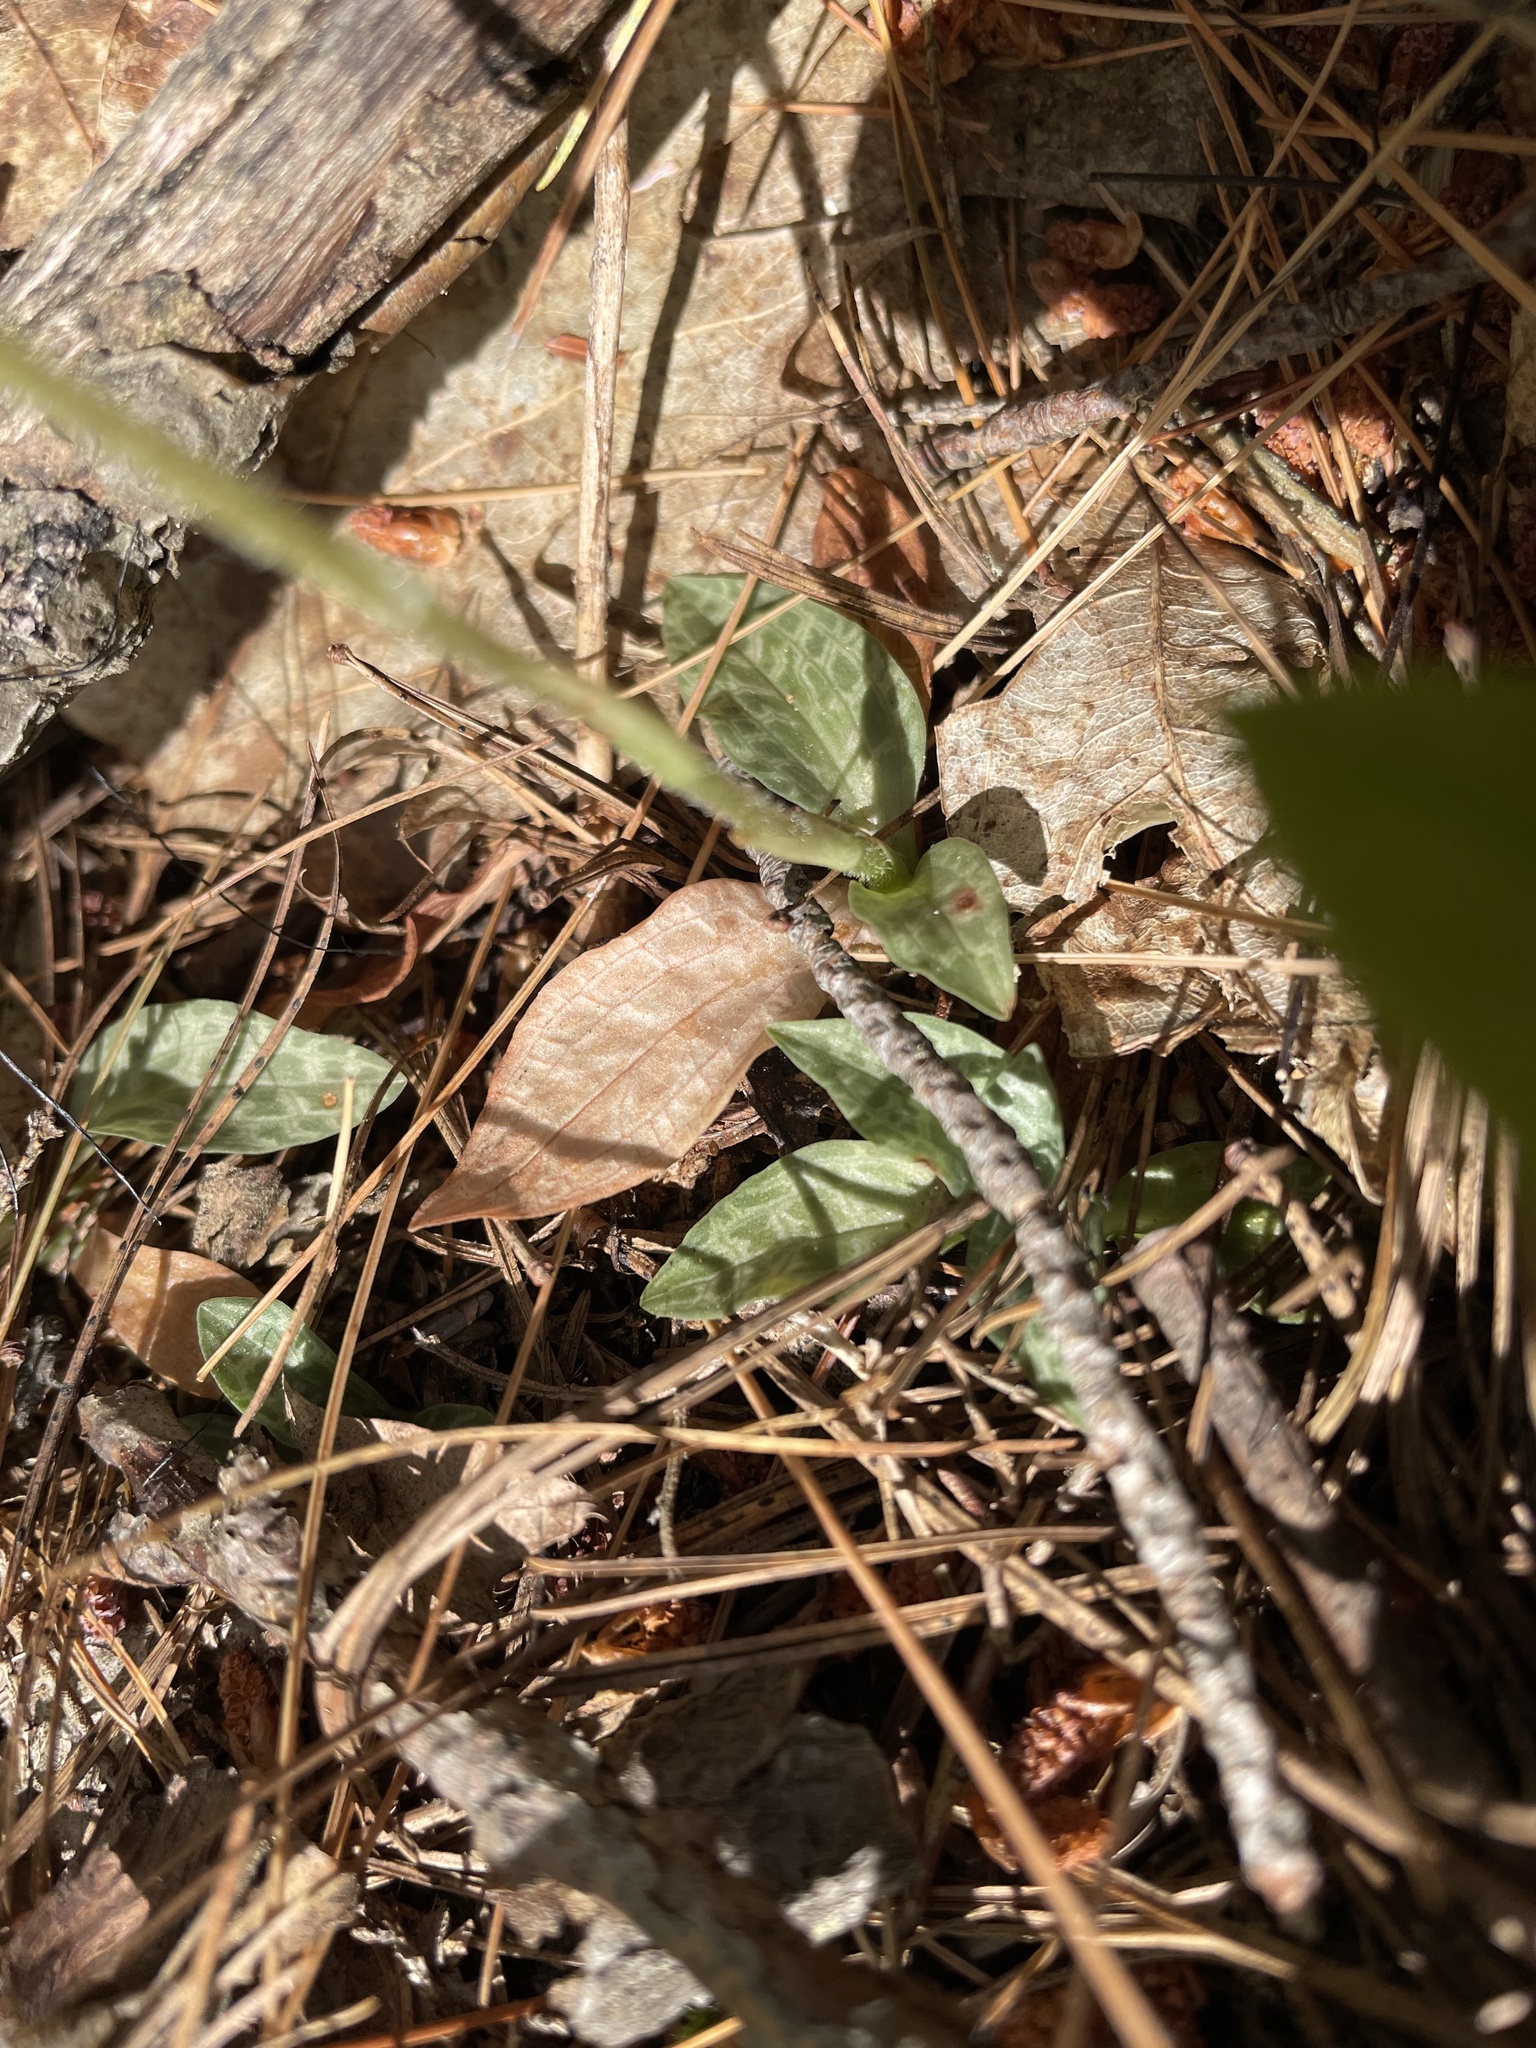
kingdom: Plantae
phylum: Tracheophyta
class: Liliopsida
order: Asparagales
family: Orchidaceae
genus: Goodyera
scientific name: Goodyera tesselata
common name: Checkered rattlesnake-plantain
